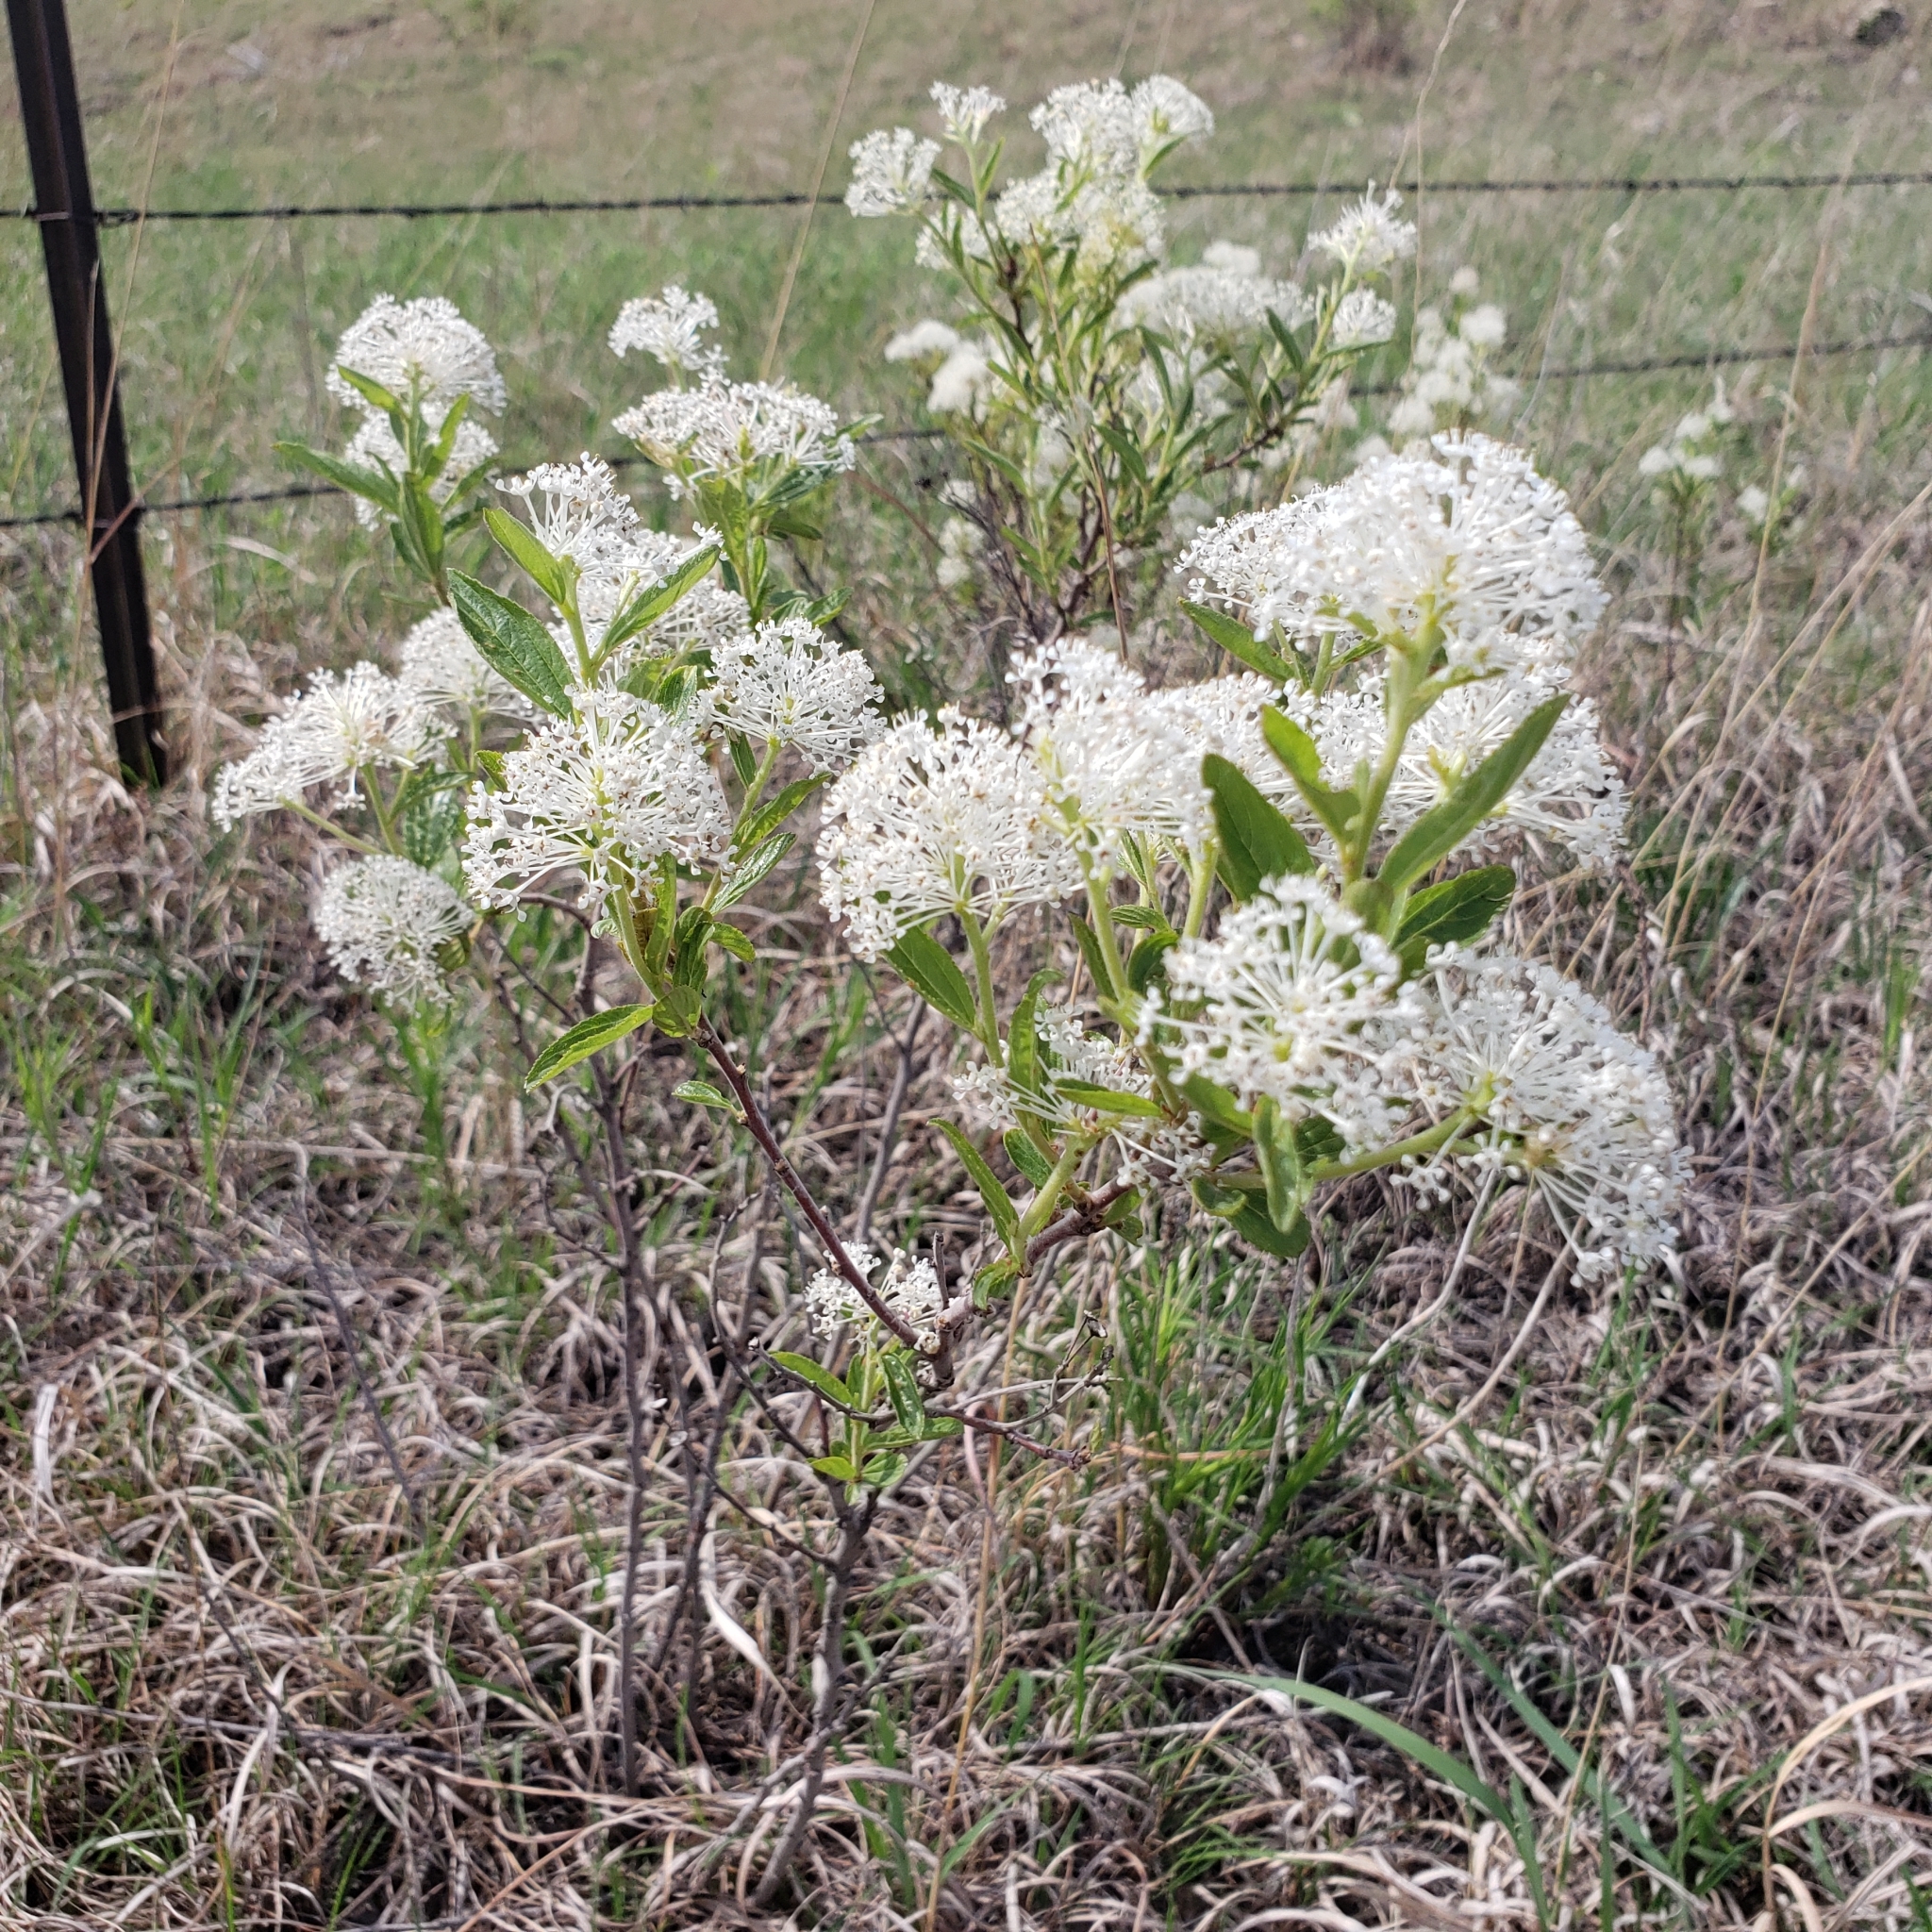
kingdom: Plantae
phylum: Tracheophyta
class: Magnoliopsida
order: Rosales
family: Rhamnaceae
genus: Ceanothus
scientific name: Ceanothus herbaceus
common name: Inland ceanothus
